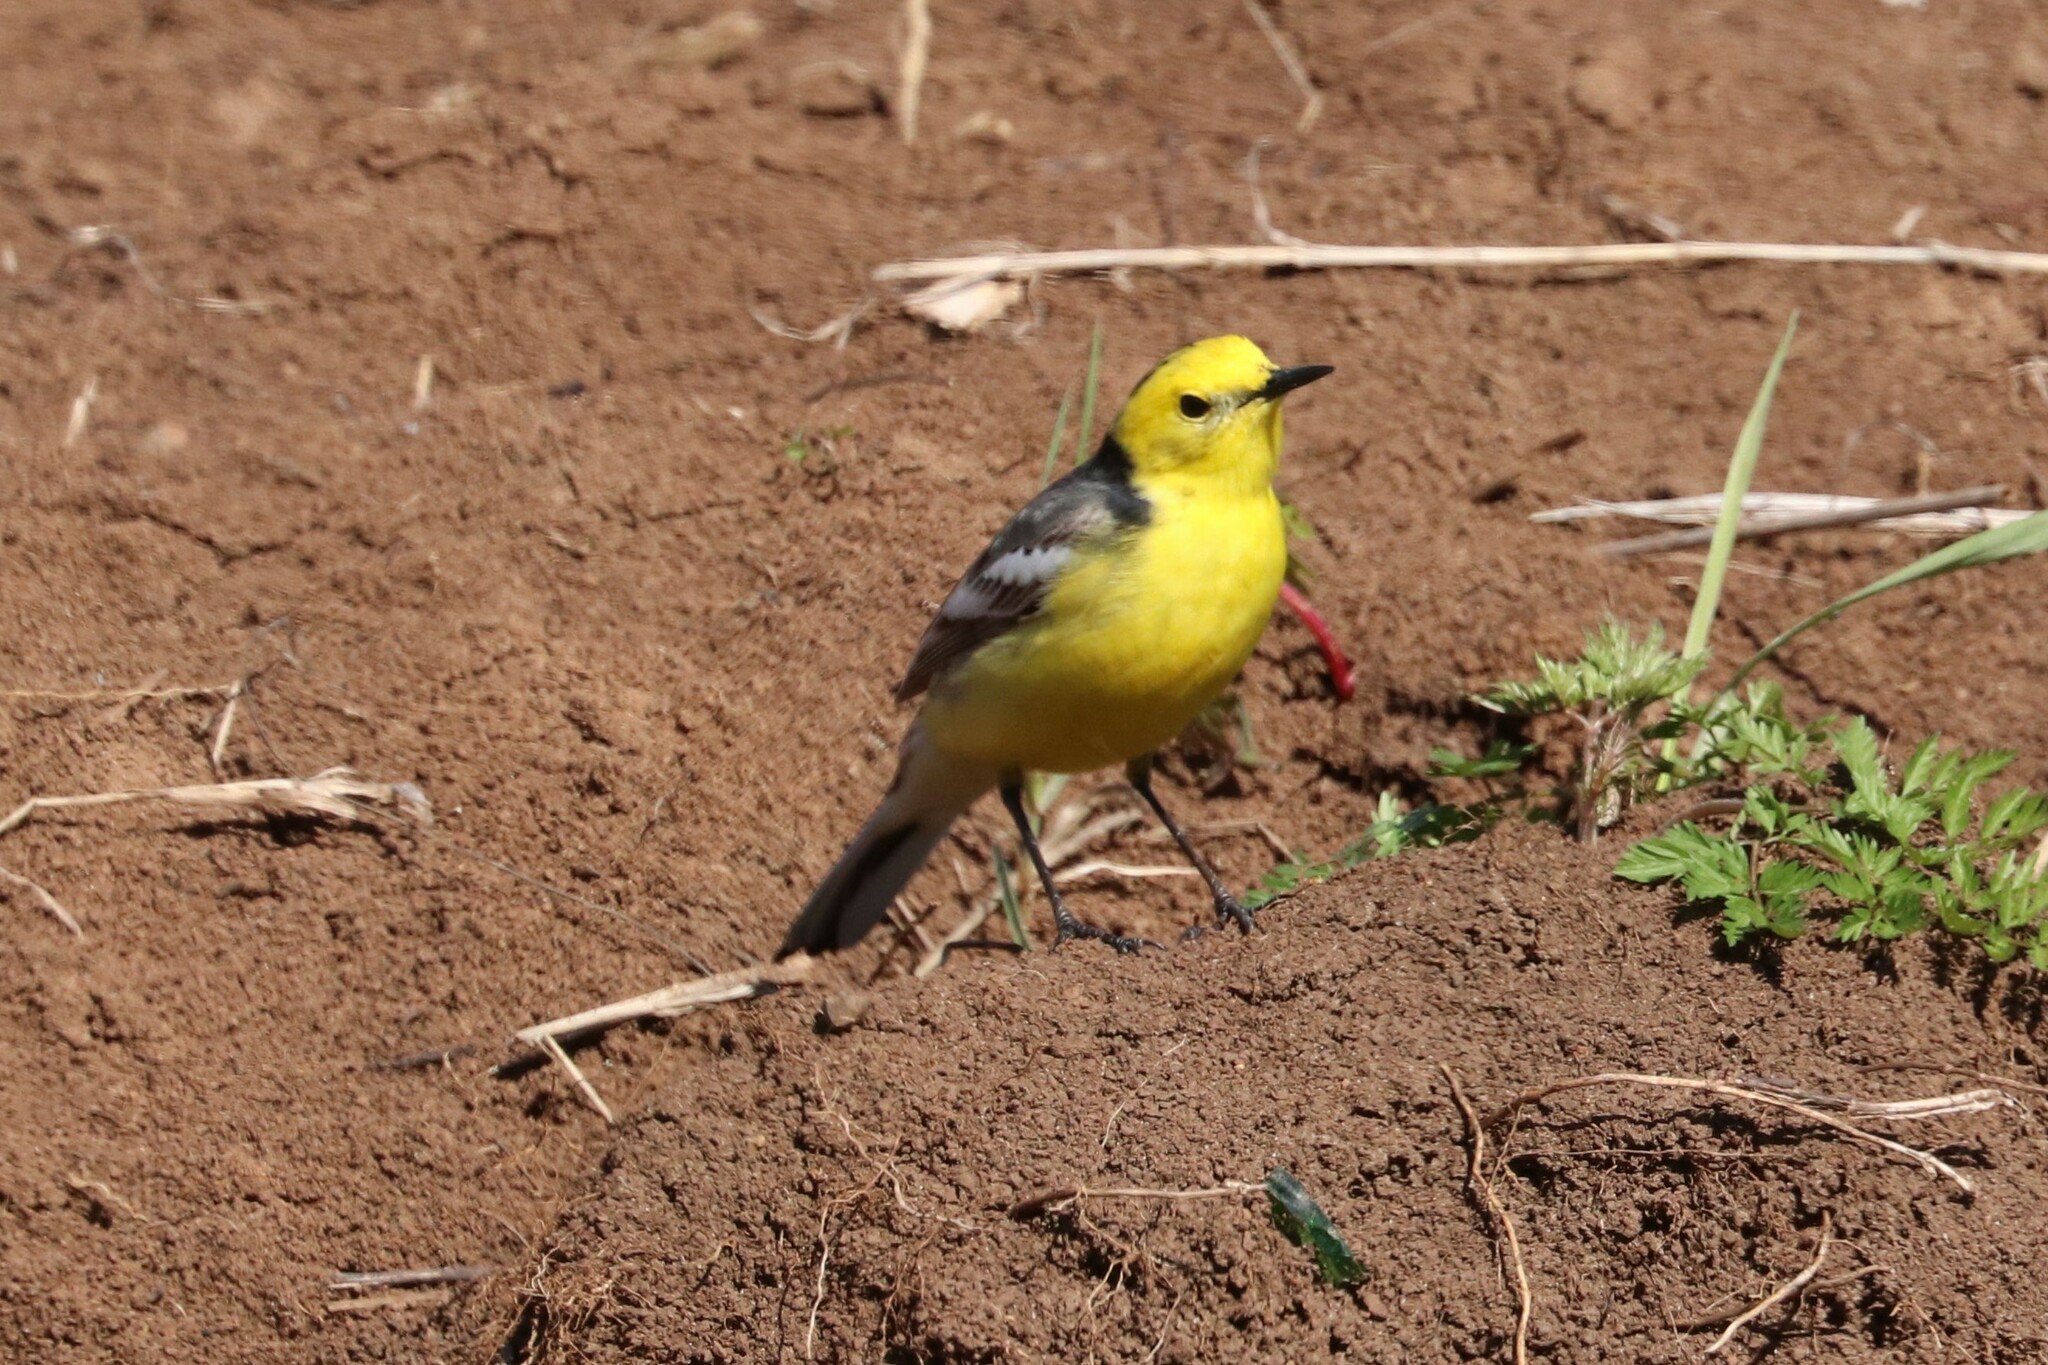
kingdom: Animalia
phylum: Chordata
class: Aves
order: Passeriformes
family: Motacillidae
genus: Motacilla
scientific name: Motacilla citreola
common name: Citrine wagtail
